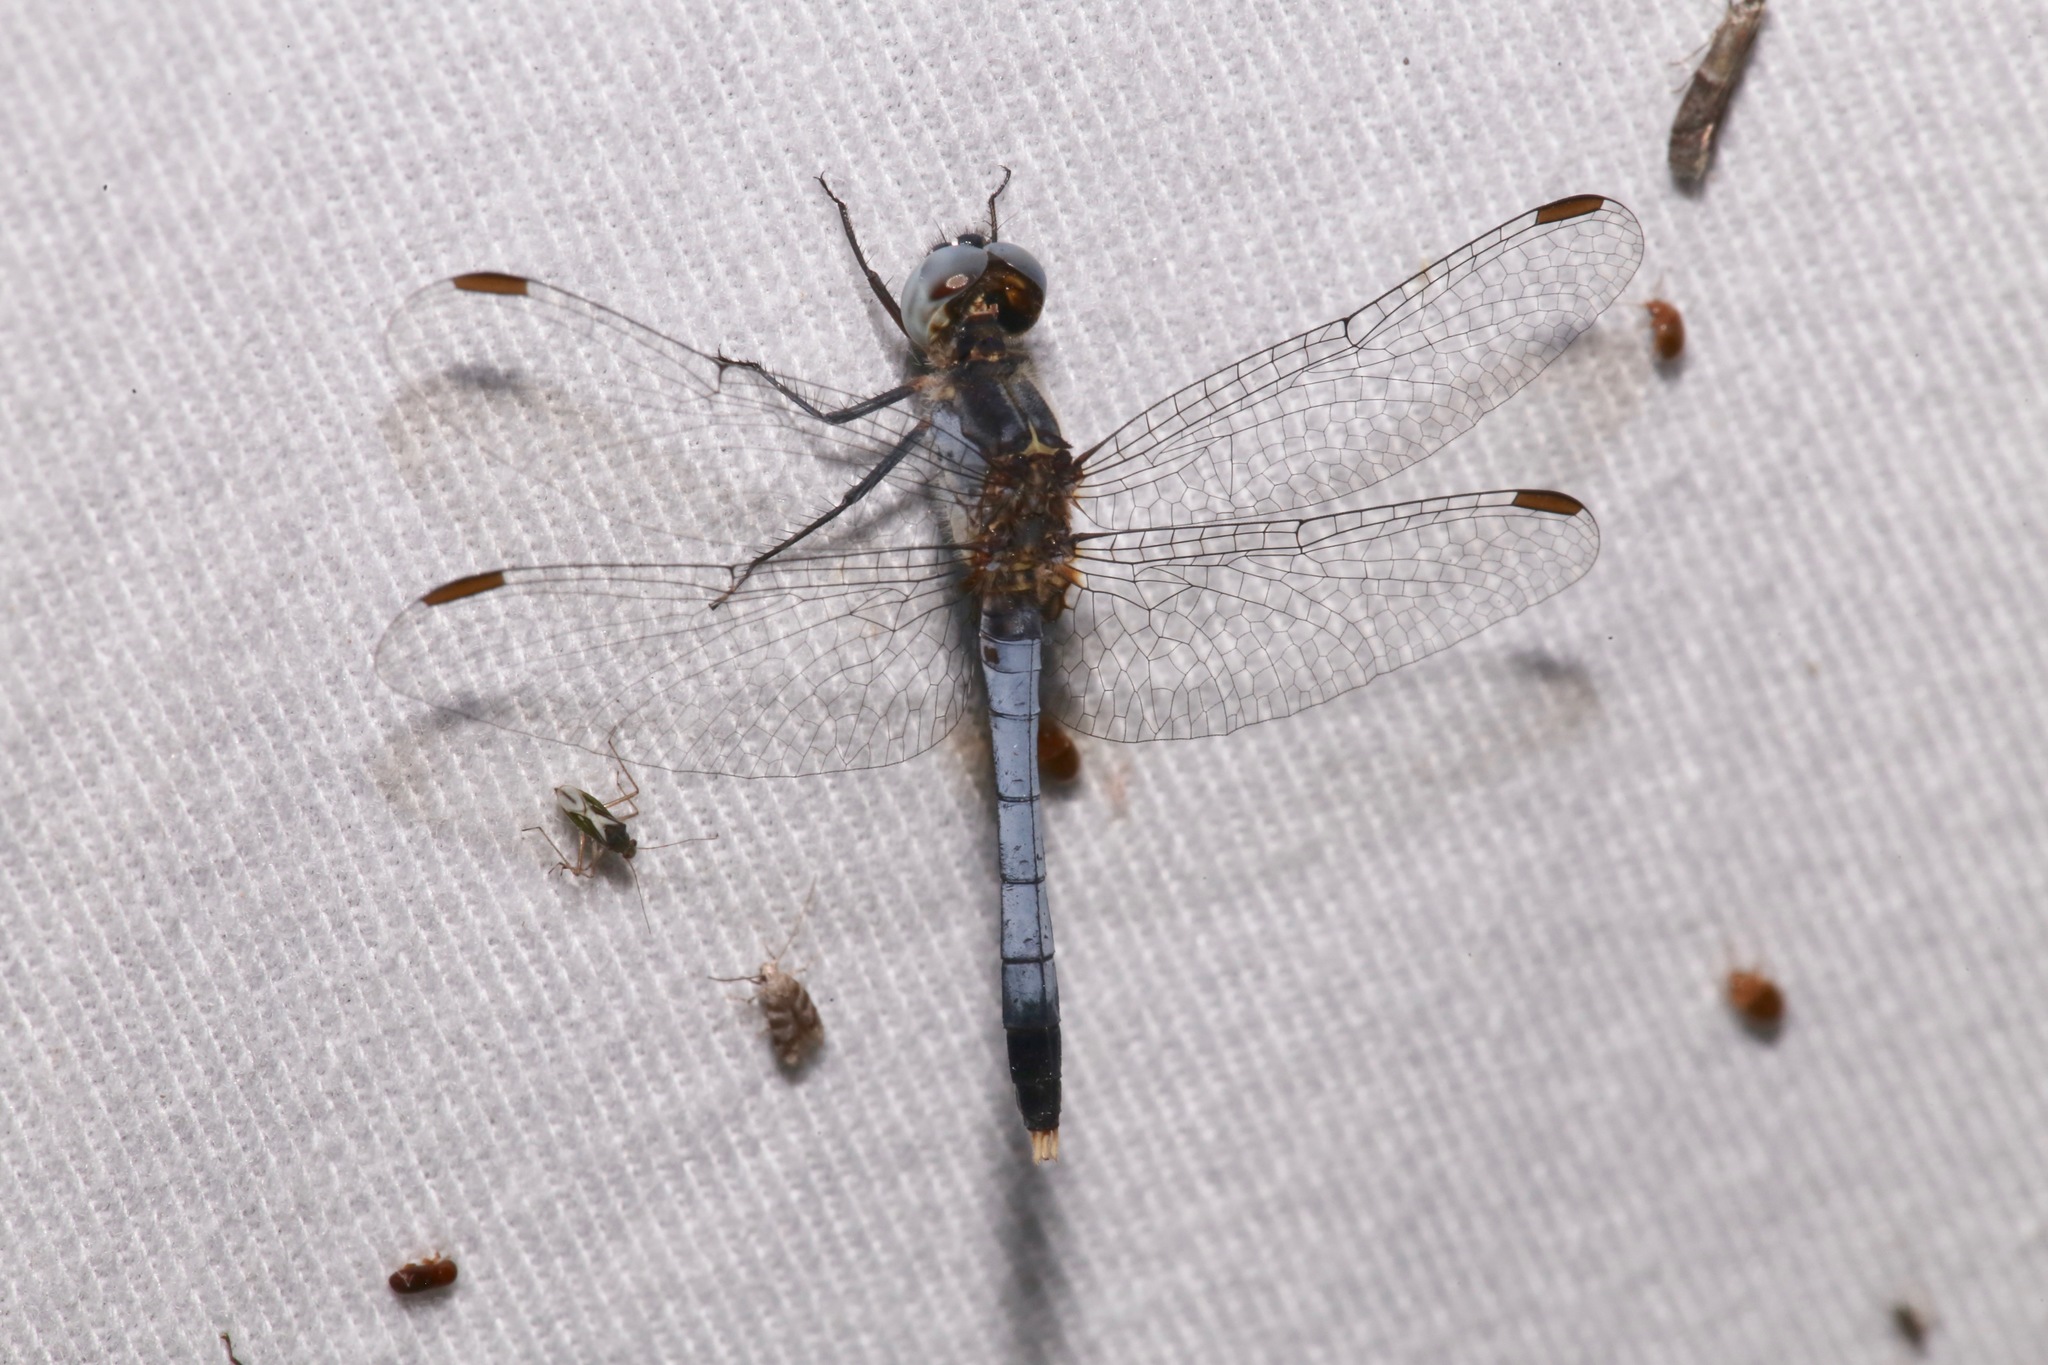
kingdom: Animalia
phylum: Arthropoda
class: Insecta
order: Odonata
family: Libellulidae
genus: Erythrodiplax
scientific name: Erythrodiplax minuscula
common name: Little blue dragonlet
